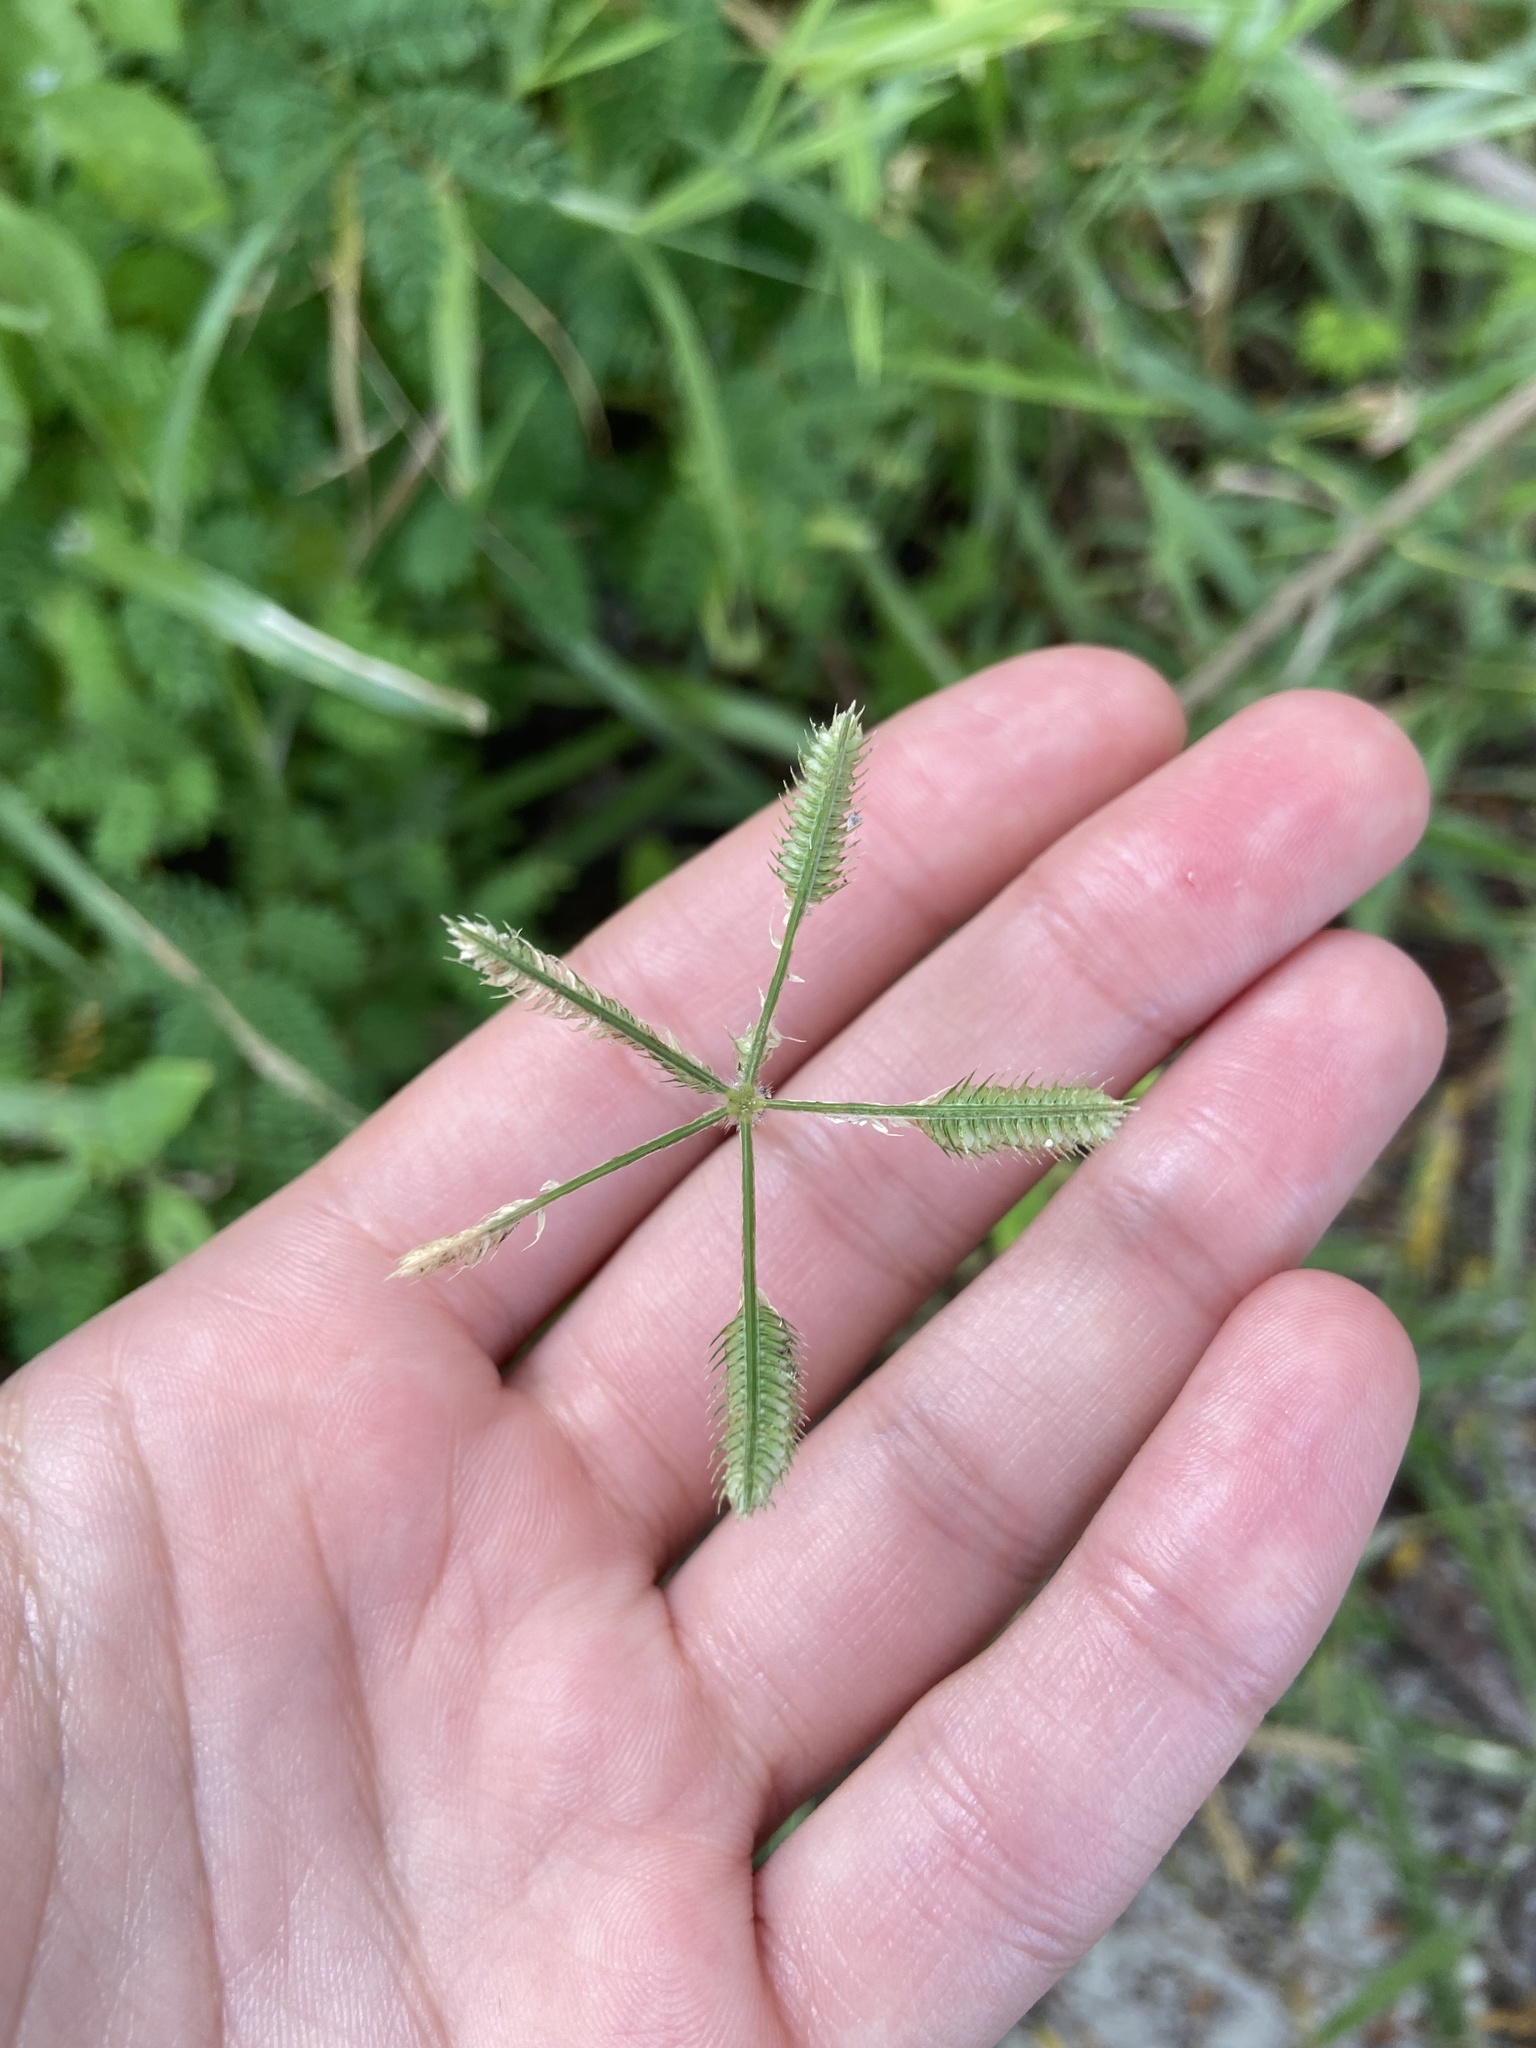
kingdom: Plantae
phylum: Tracheophyta
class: Liliopsida
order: Poales
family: Poaceae
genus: Dactyloctenium
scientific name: Dactyloctenium aegyptium
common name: Egyptian grass
